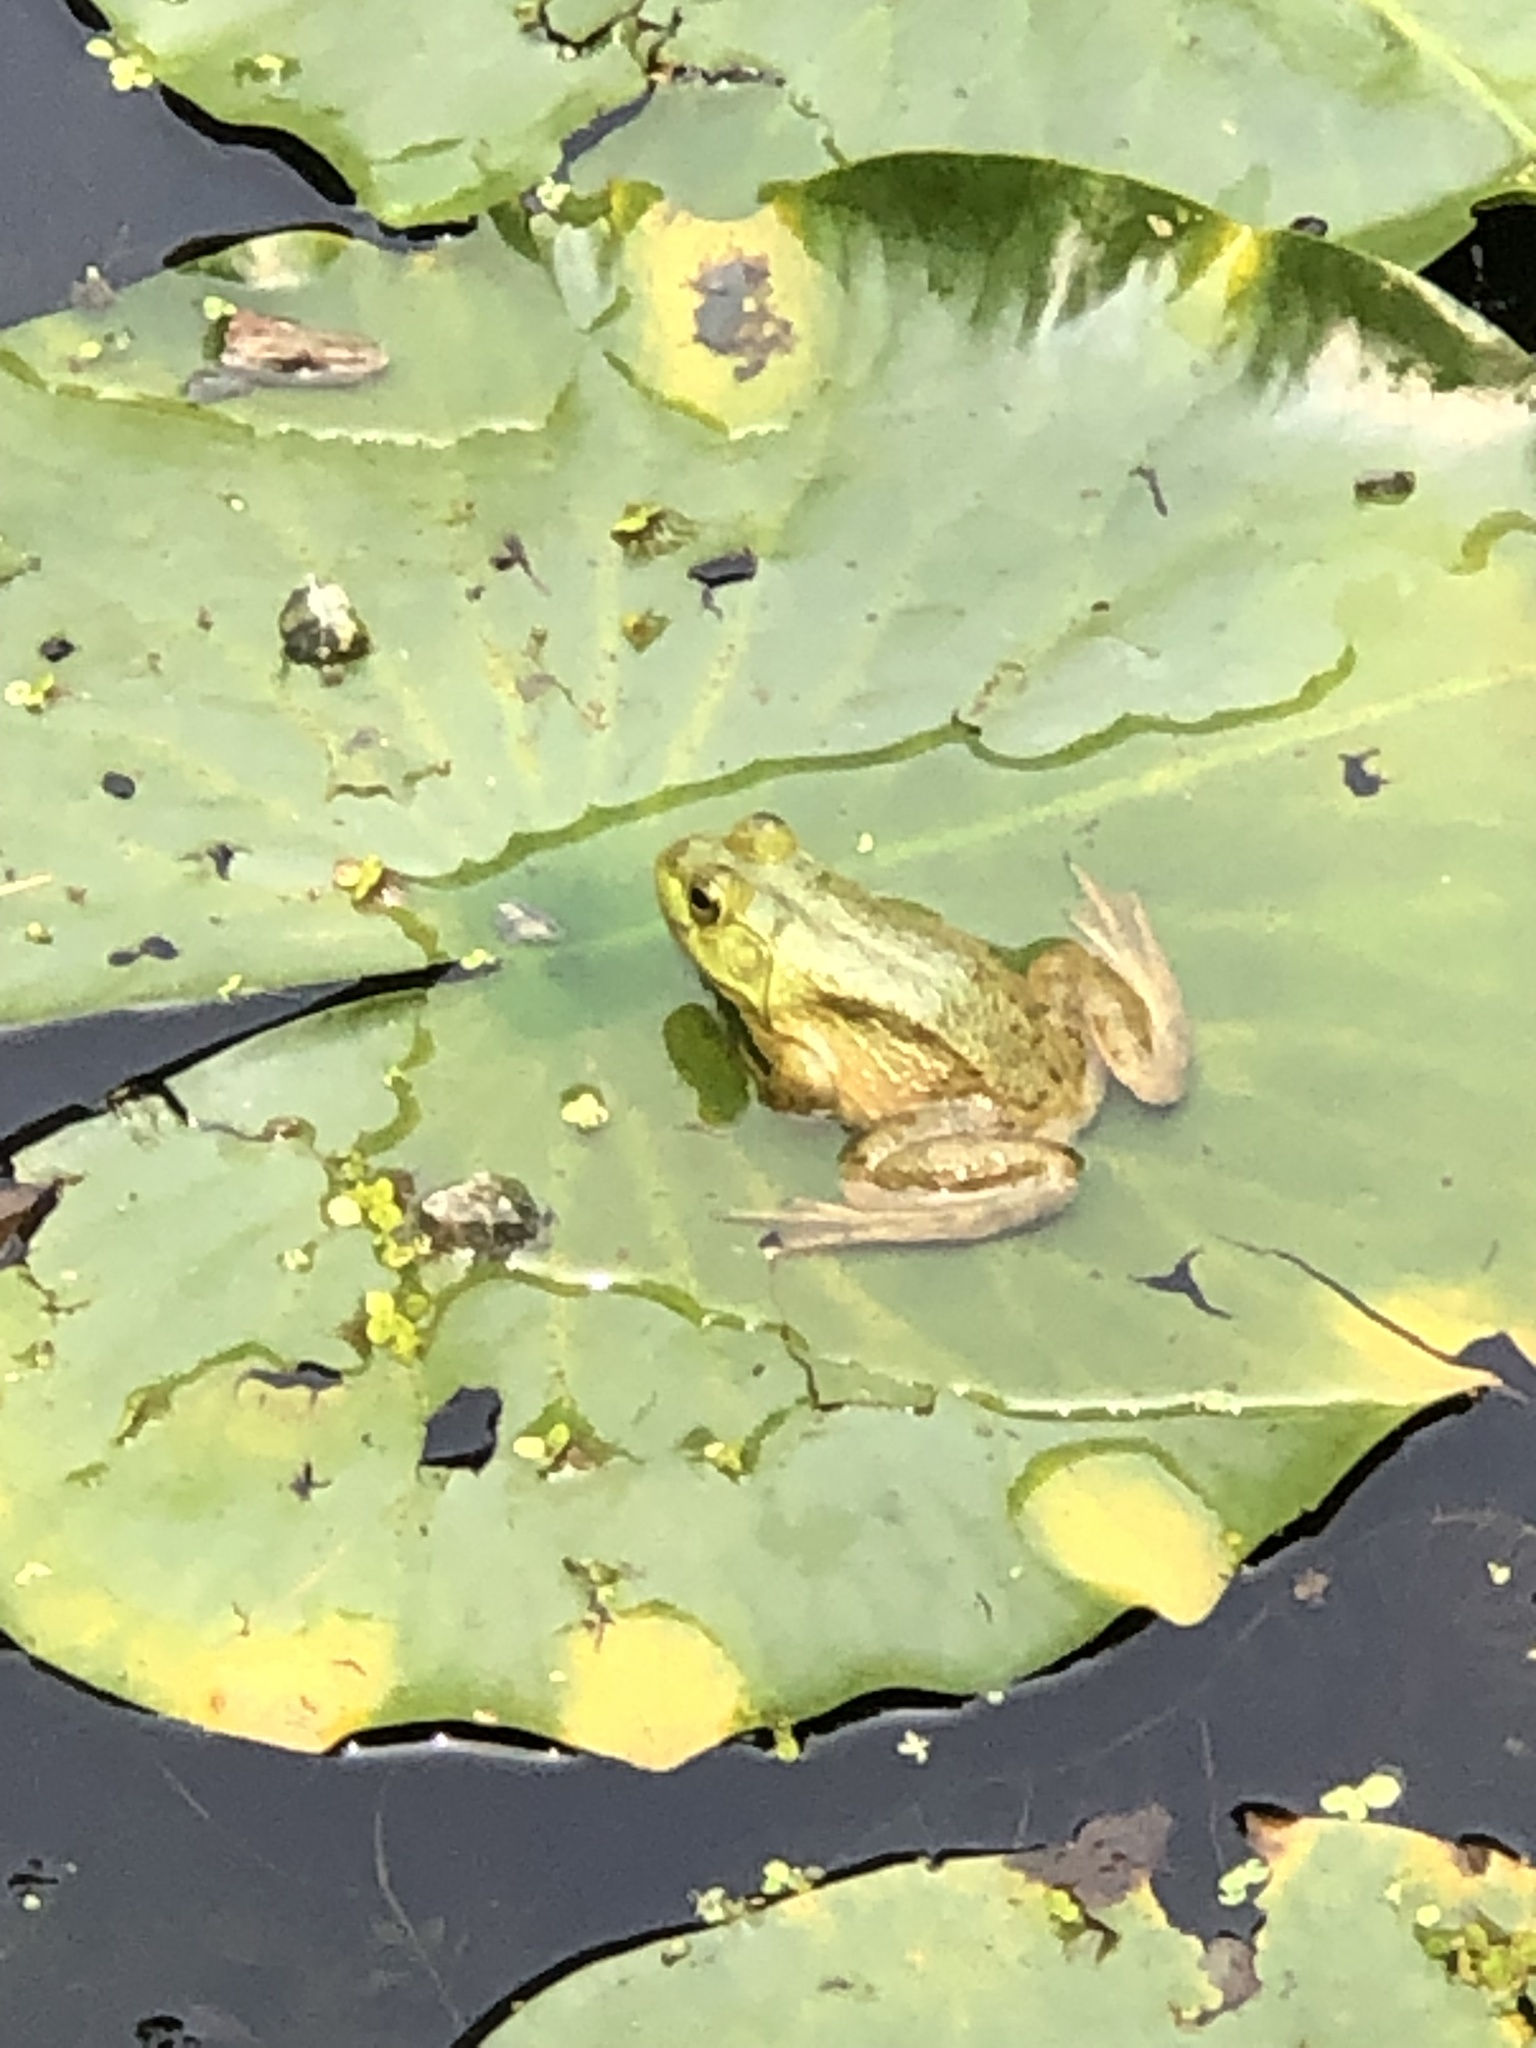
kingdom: Animalia
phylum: Chordata
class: Amphibia
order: Anura
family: Ranidae
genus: Lithobates
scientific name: Lithobates catesbeianus
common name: American bullfrog
